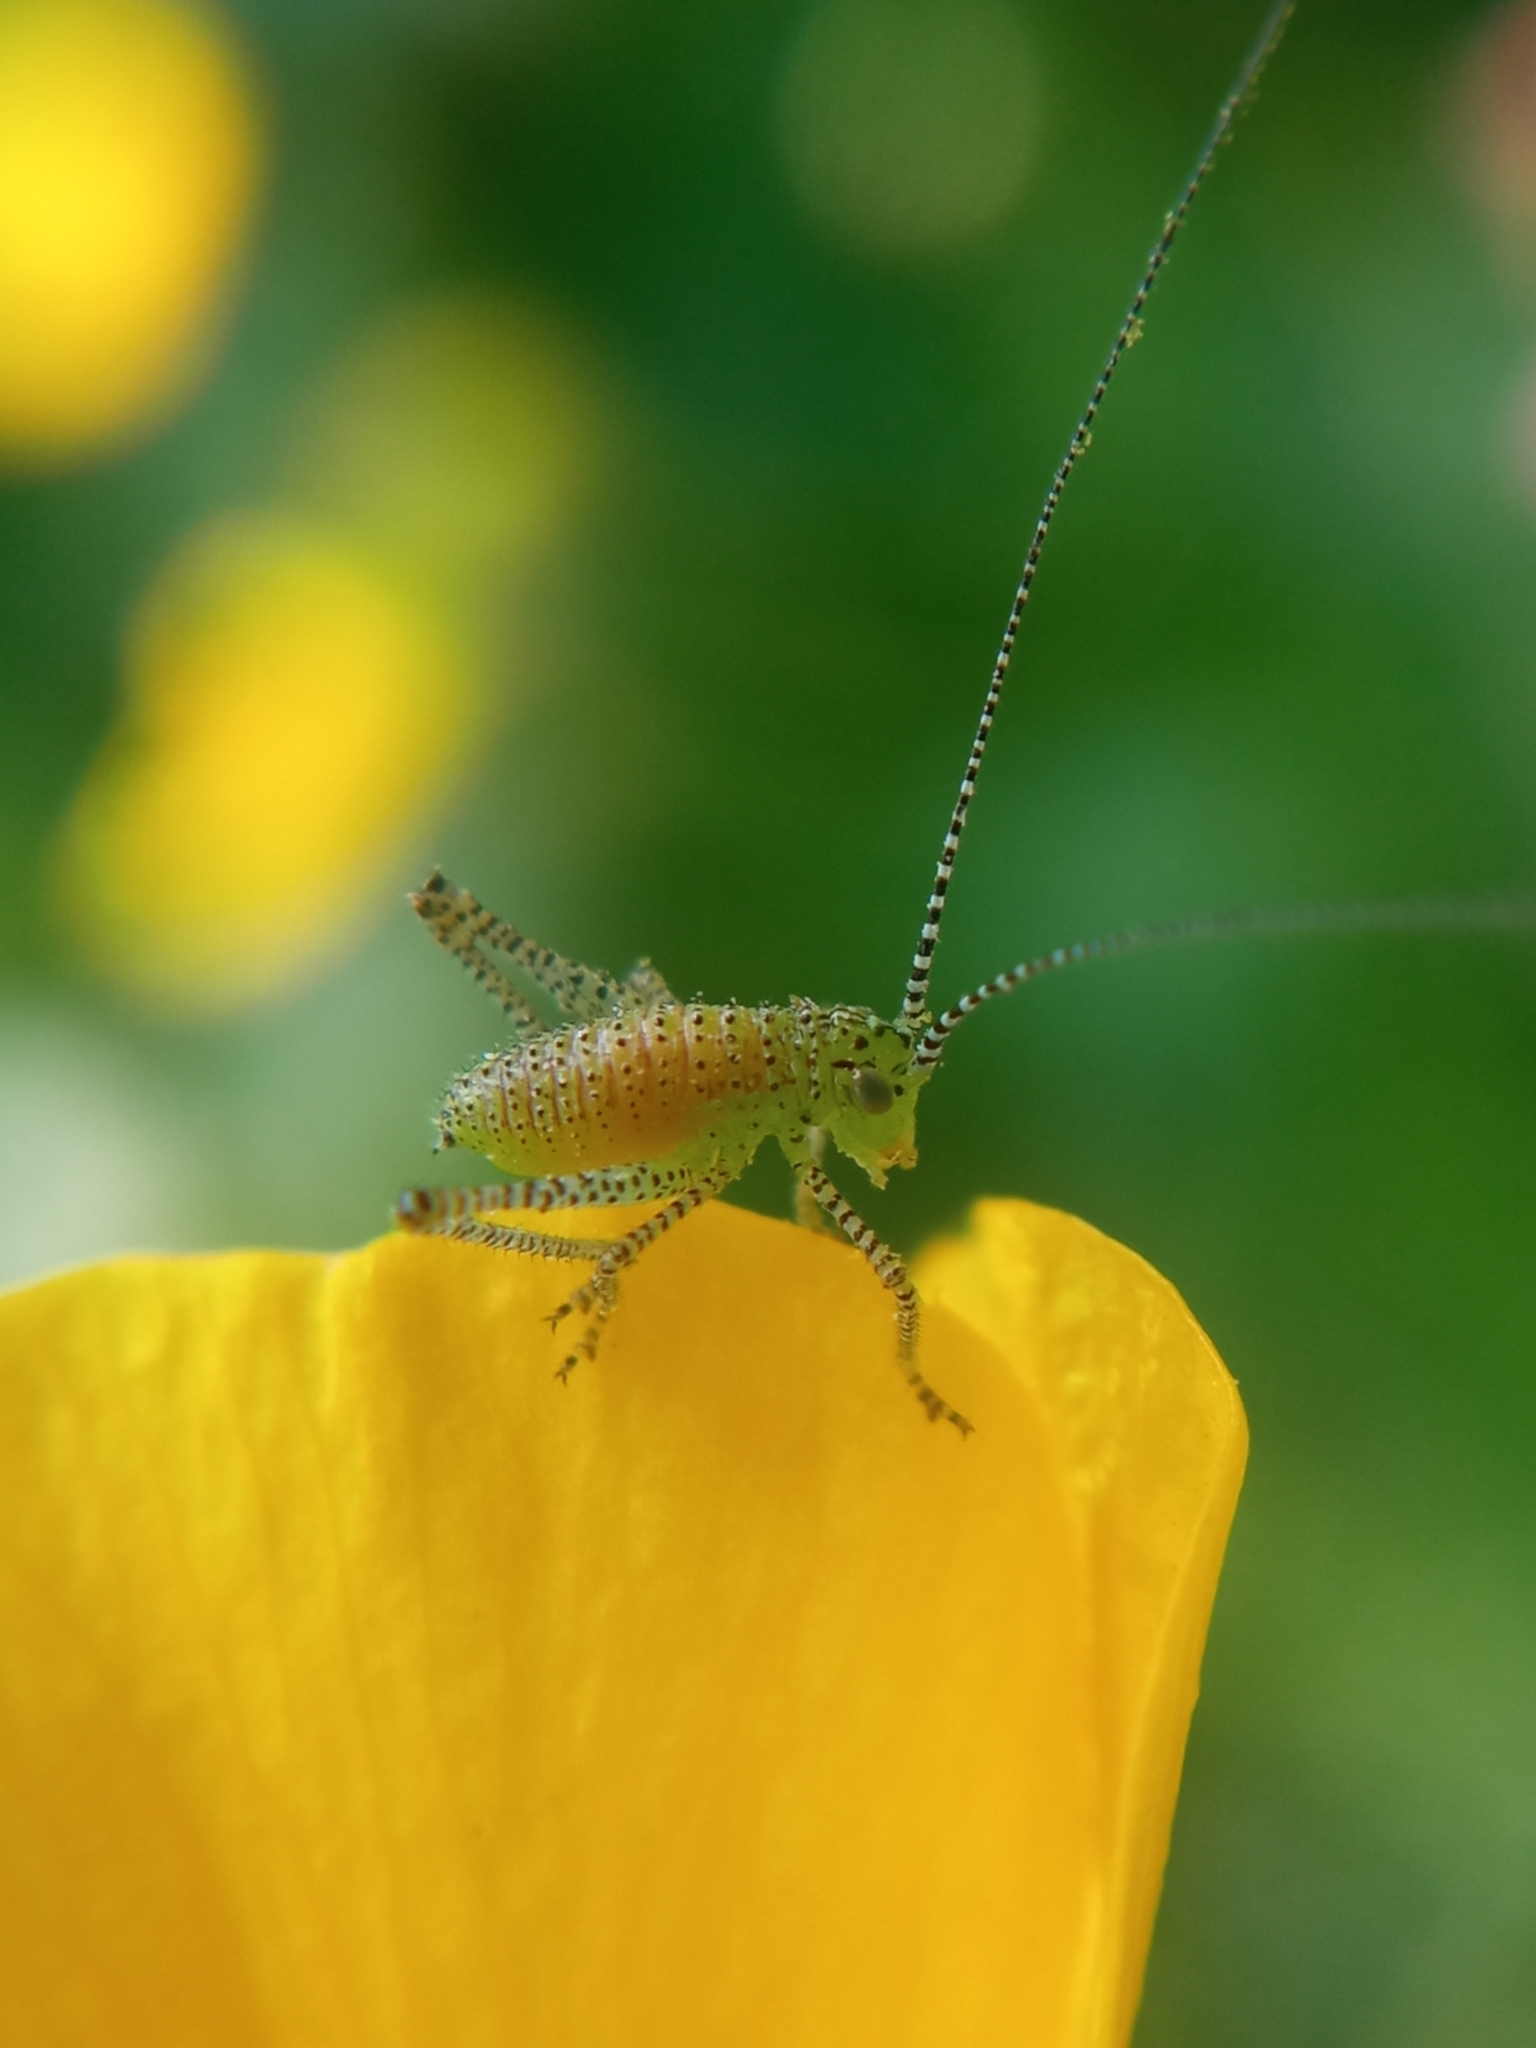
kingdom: Animalia
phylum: Arthropoda
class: Insecta
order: Orthoptera
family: Tettigoniidae
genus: Leptophyes
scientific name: Leptophyes punctatissima
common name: Speckled bush-cricket
